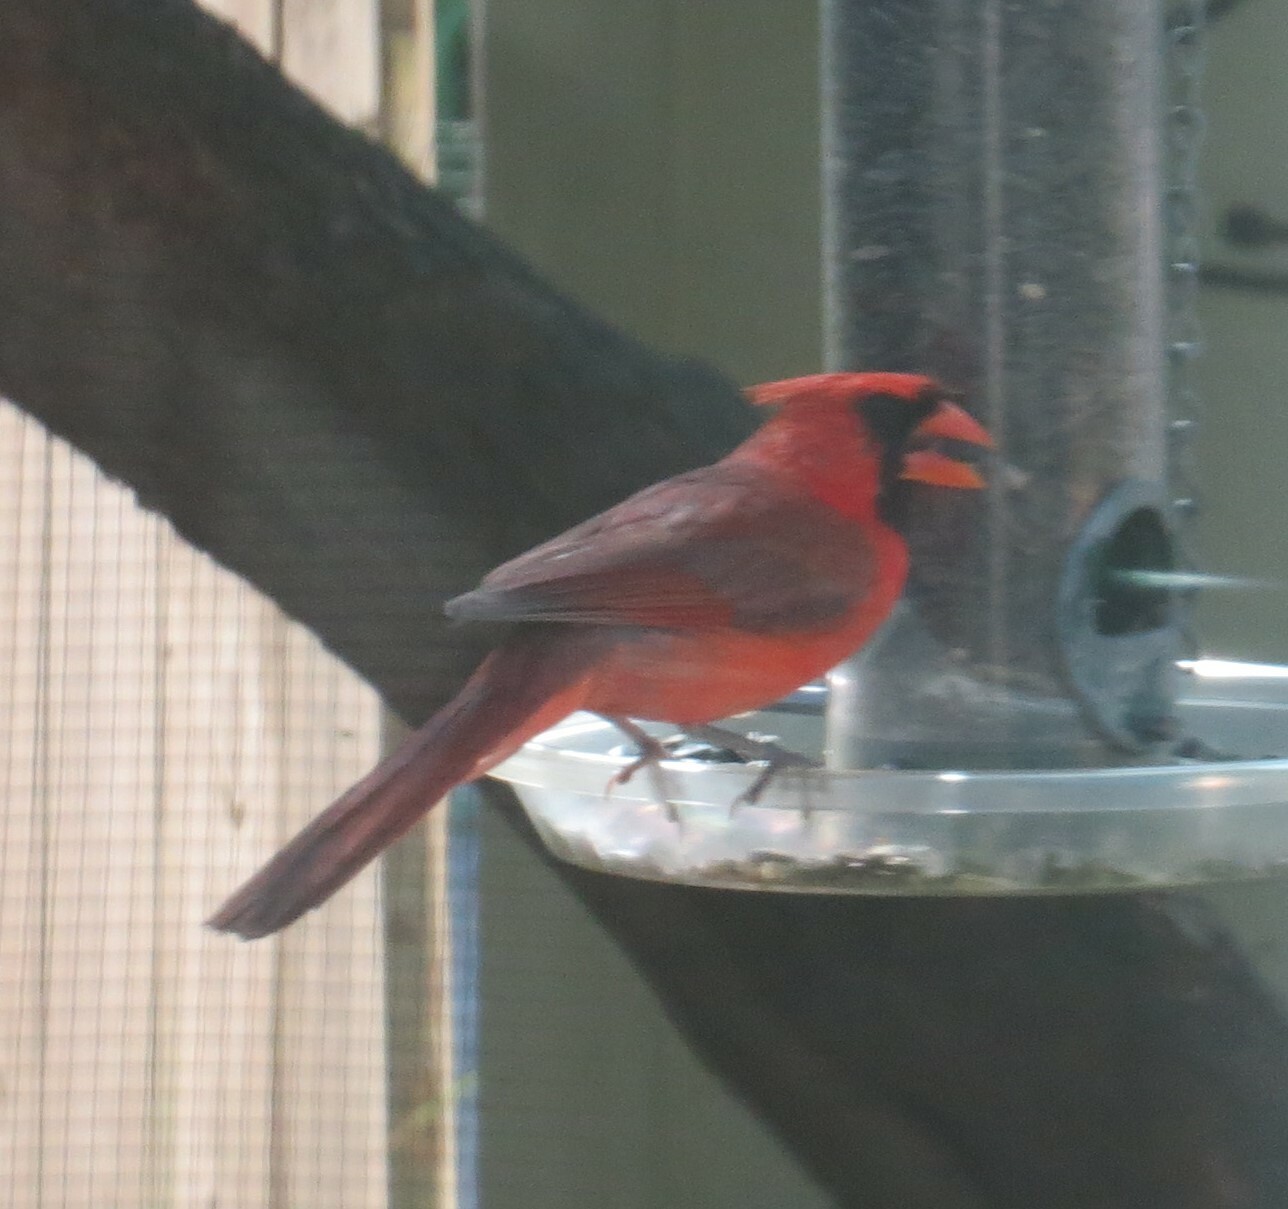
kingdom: Animalia
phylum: Chordata
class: Aves
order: Passeriformes
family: Cardinalidae
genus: Cardinalis
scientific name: Cardinalis cardinalis
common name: Northern cardinal
